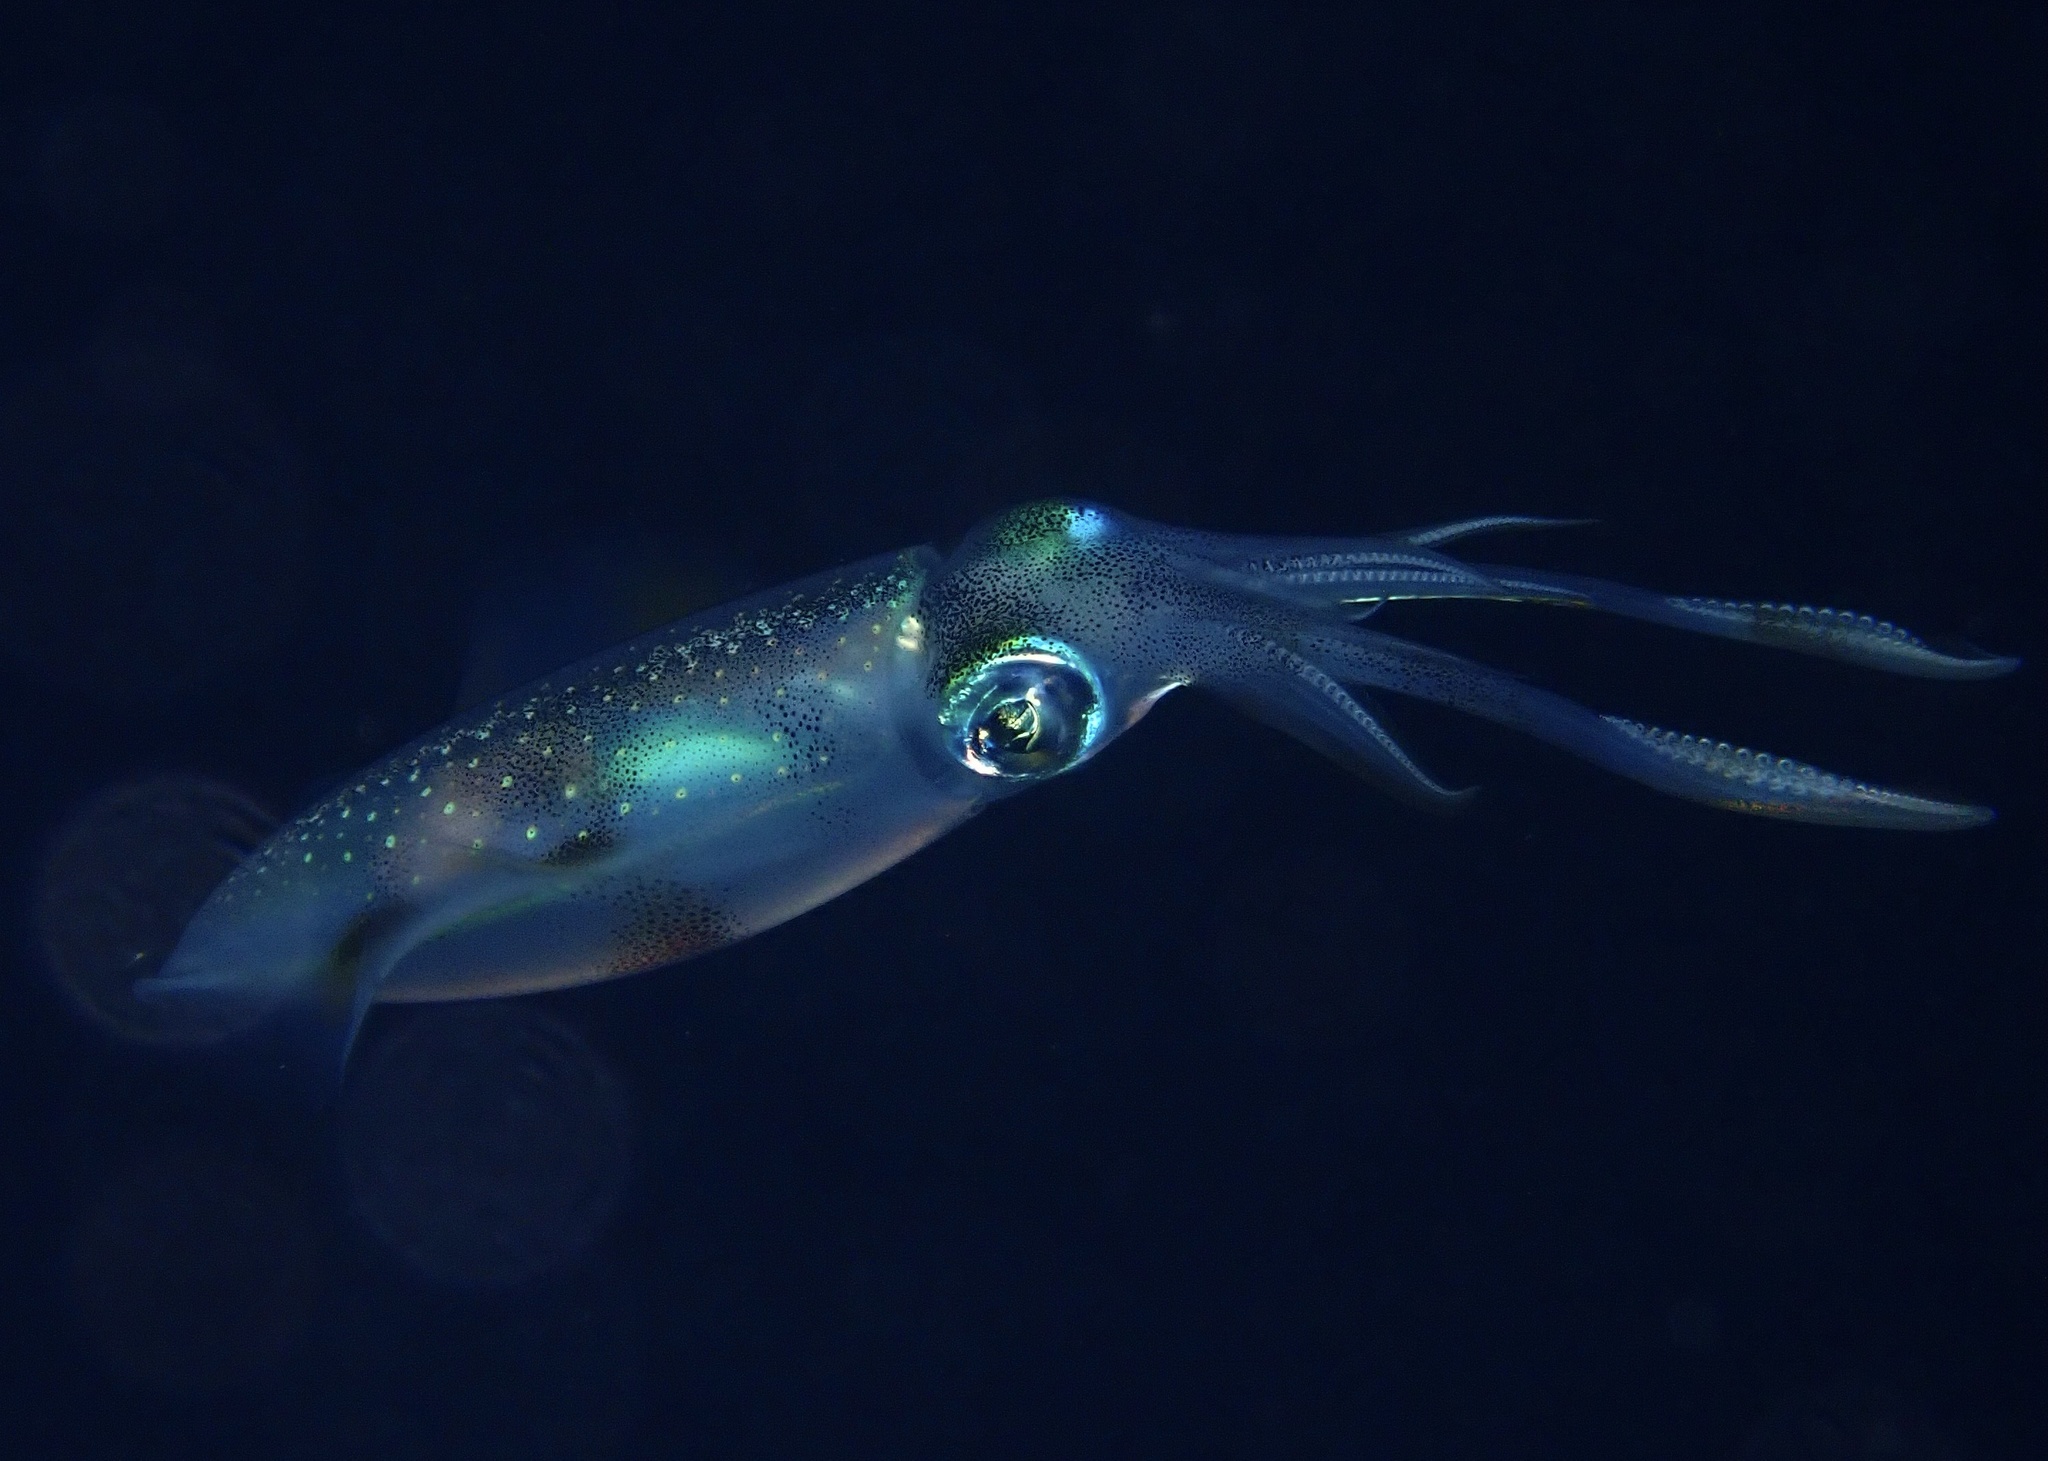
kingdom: Animalia
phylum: Mollusca
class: Cephalopoda
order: Myopsida
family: Loliginidae
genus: Sepioteuthis
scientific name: Sepioteuthis lessoniana
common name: Bigfin reef squid
